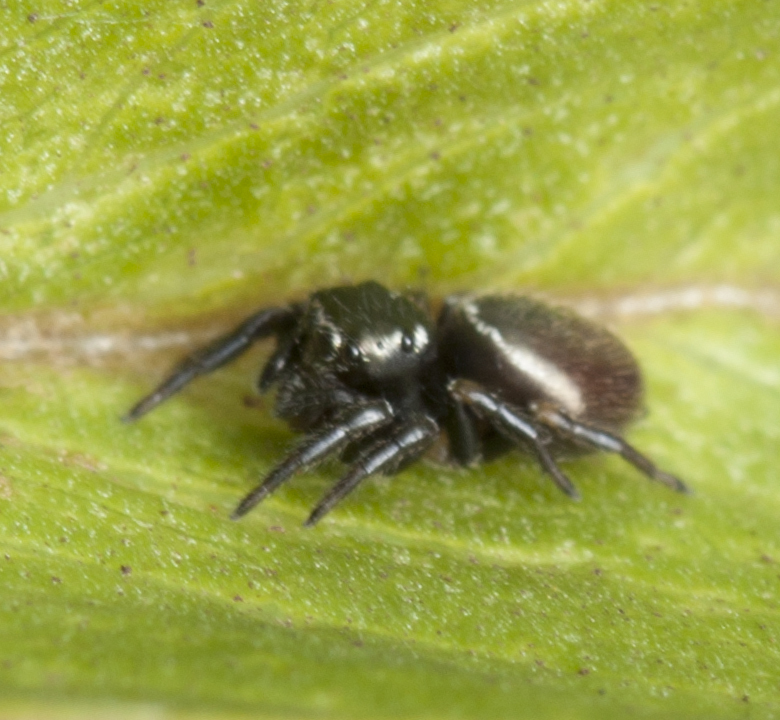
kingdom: Animalia
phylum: Arthropoda
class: Arachnida
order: Araneae
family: Salticidae
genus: Zenodorus
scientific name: Zenodorus orbiculatus
